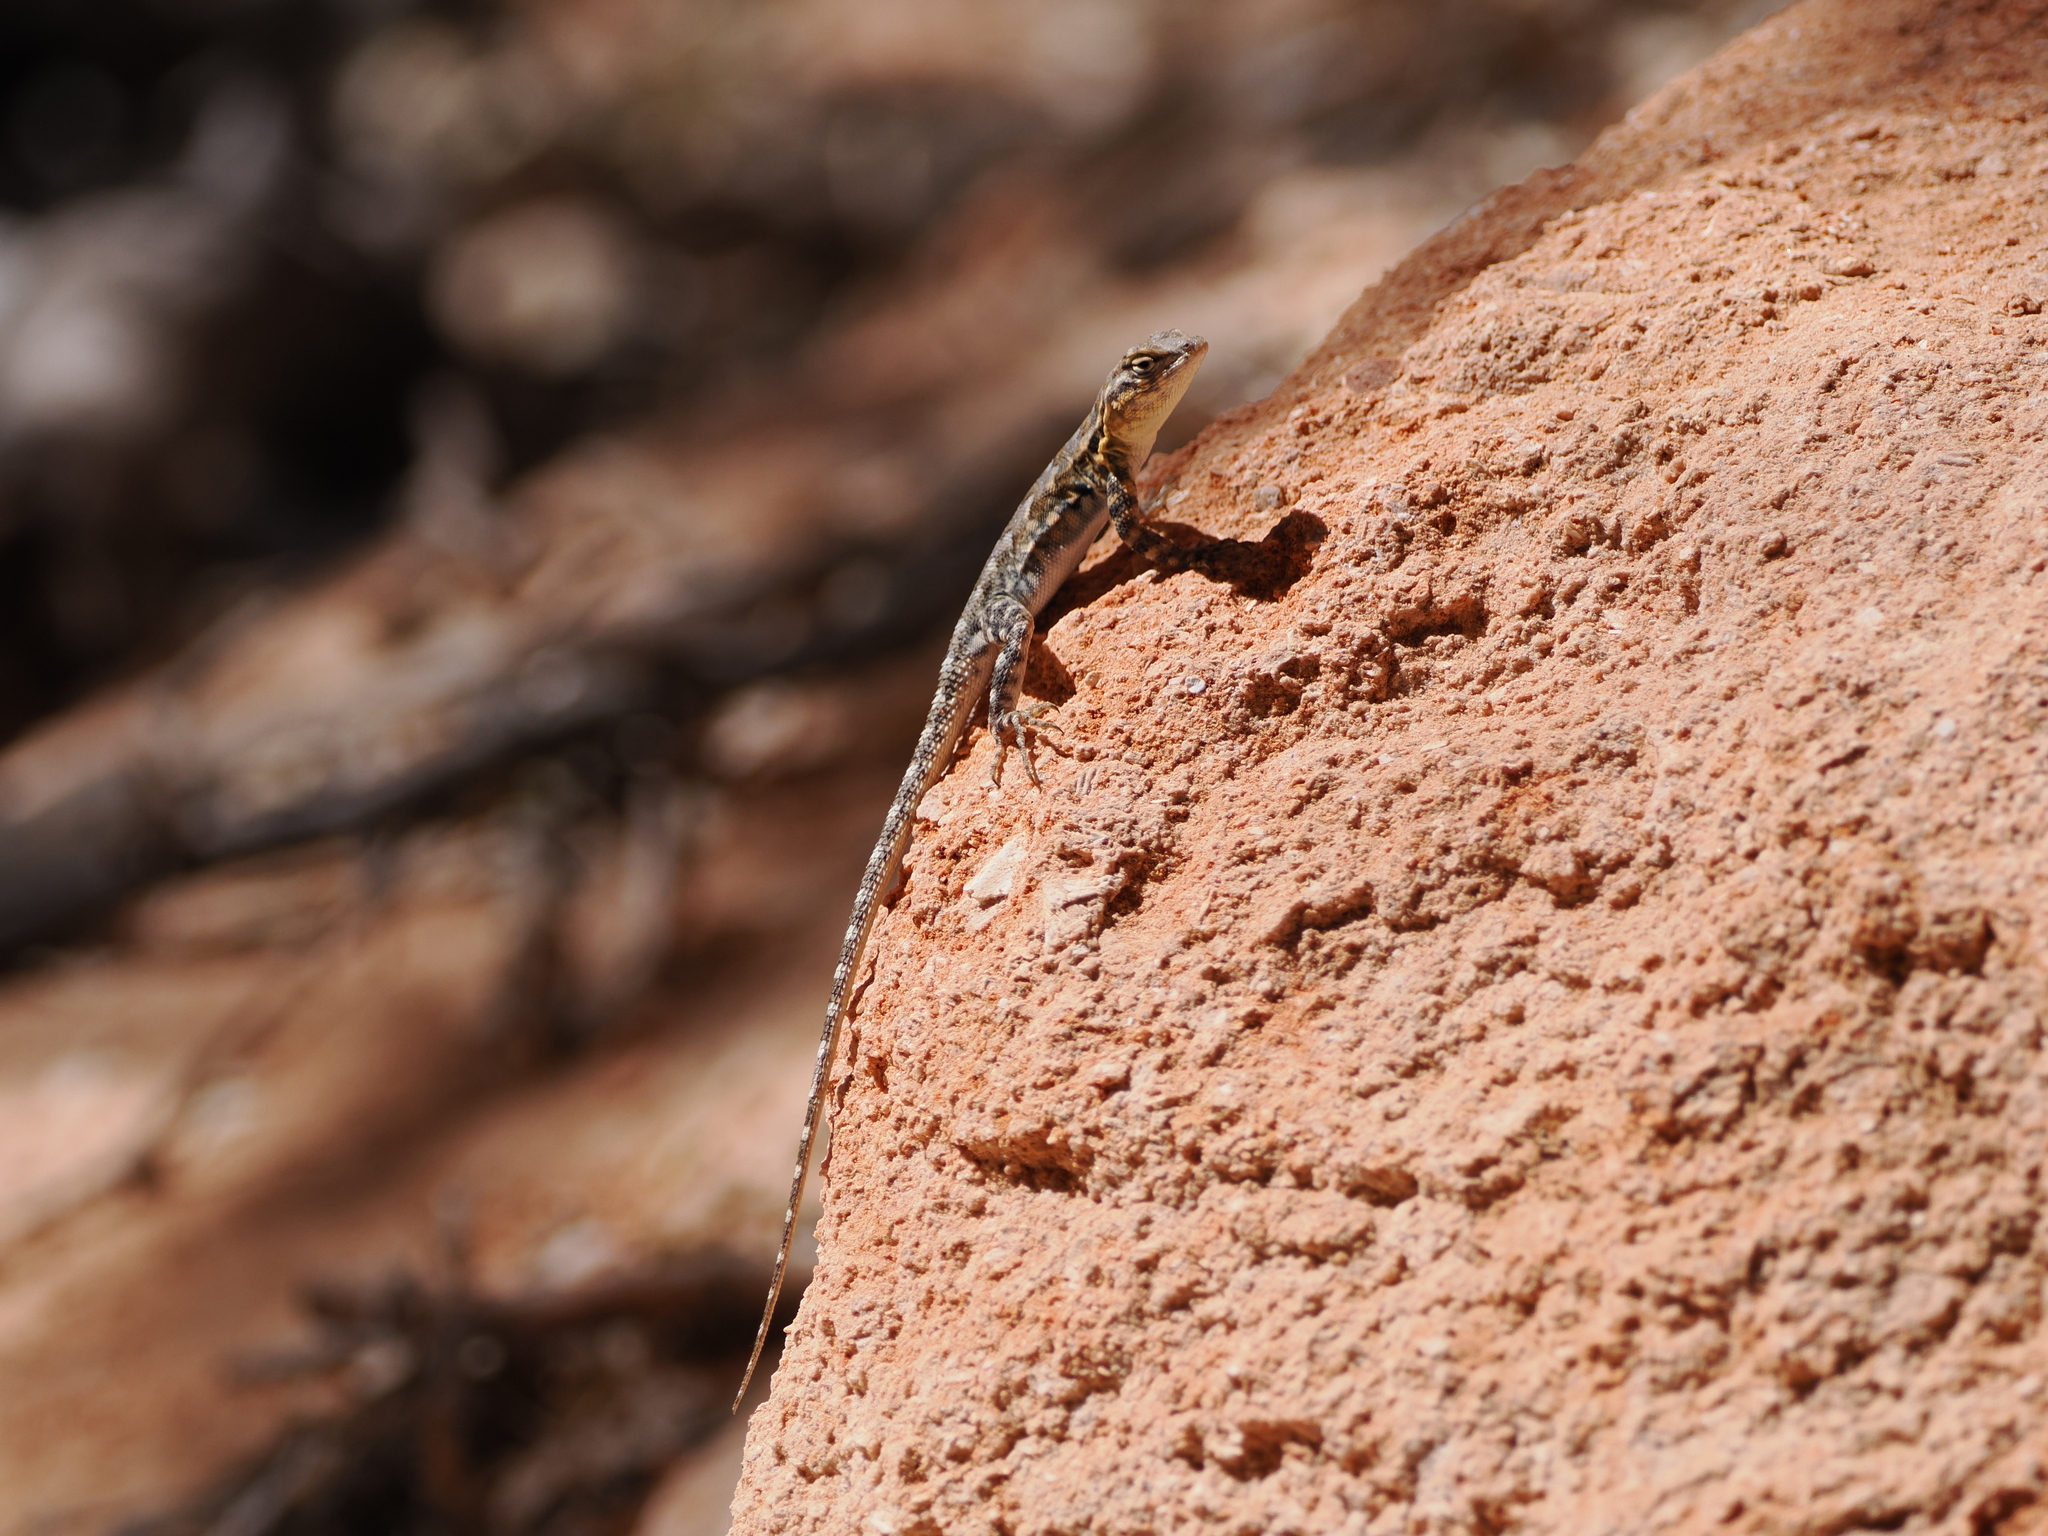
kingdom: Animalia
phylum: Chordata
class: Squamata
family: Phrynosomatidae
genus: Uta
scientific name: Uta stansburiana
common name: Side-blotched lizard
